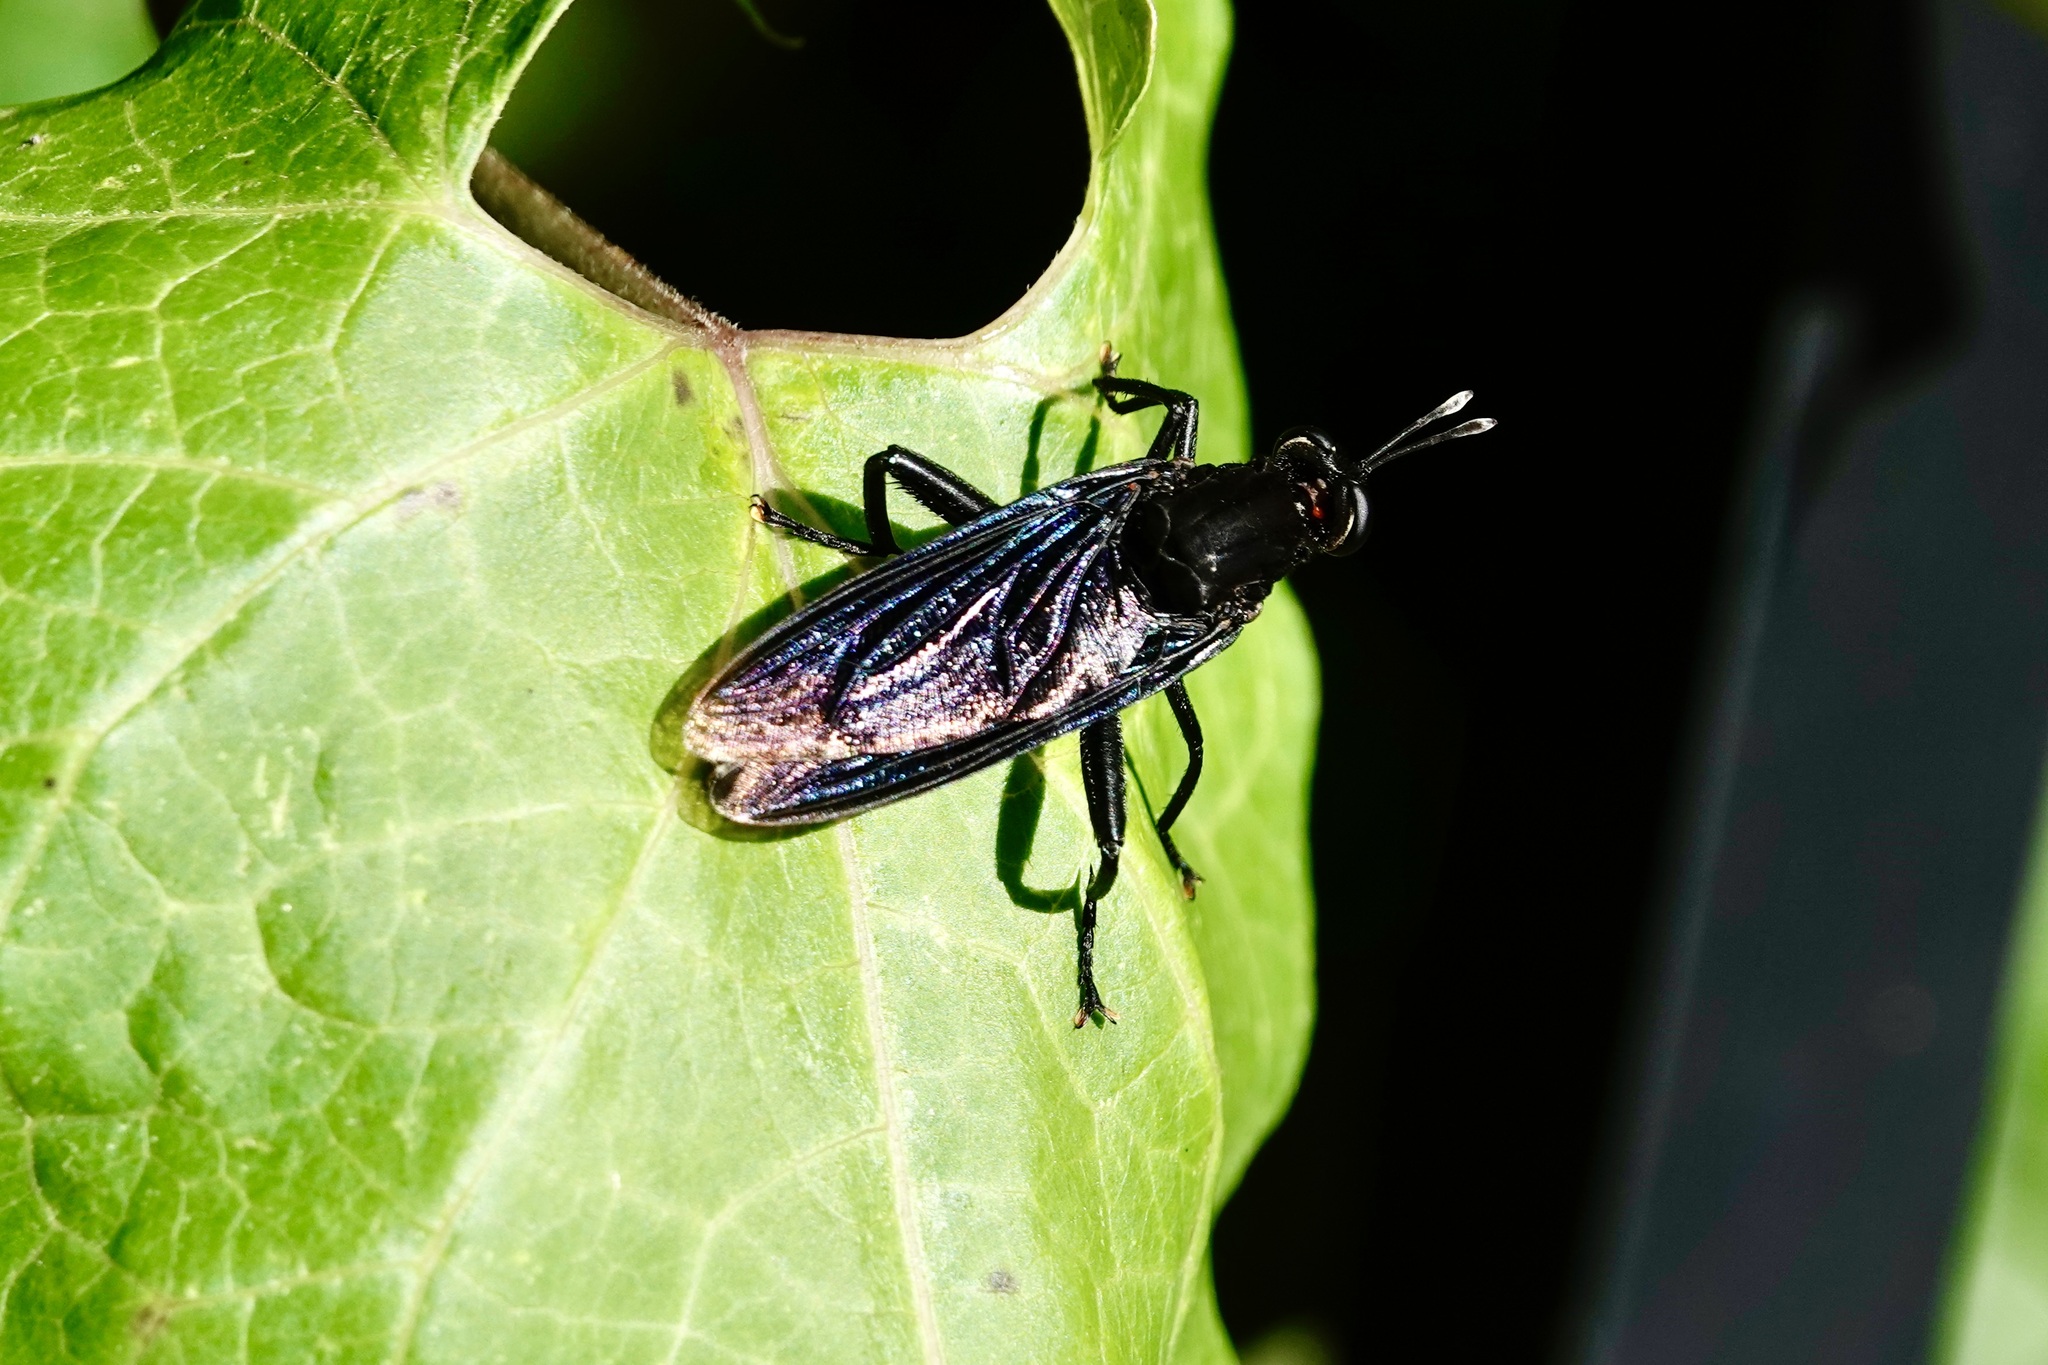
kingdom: Animalia
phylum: Arthropoda
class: Insecta
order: Diptera
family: Mydidae
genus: Mydas
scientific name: Mydas clavatus
